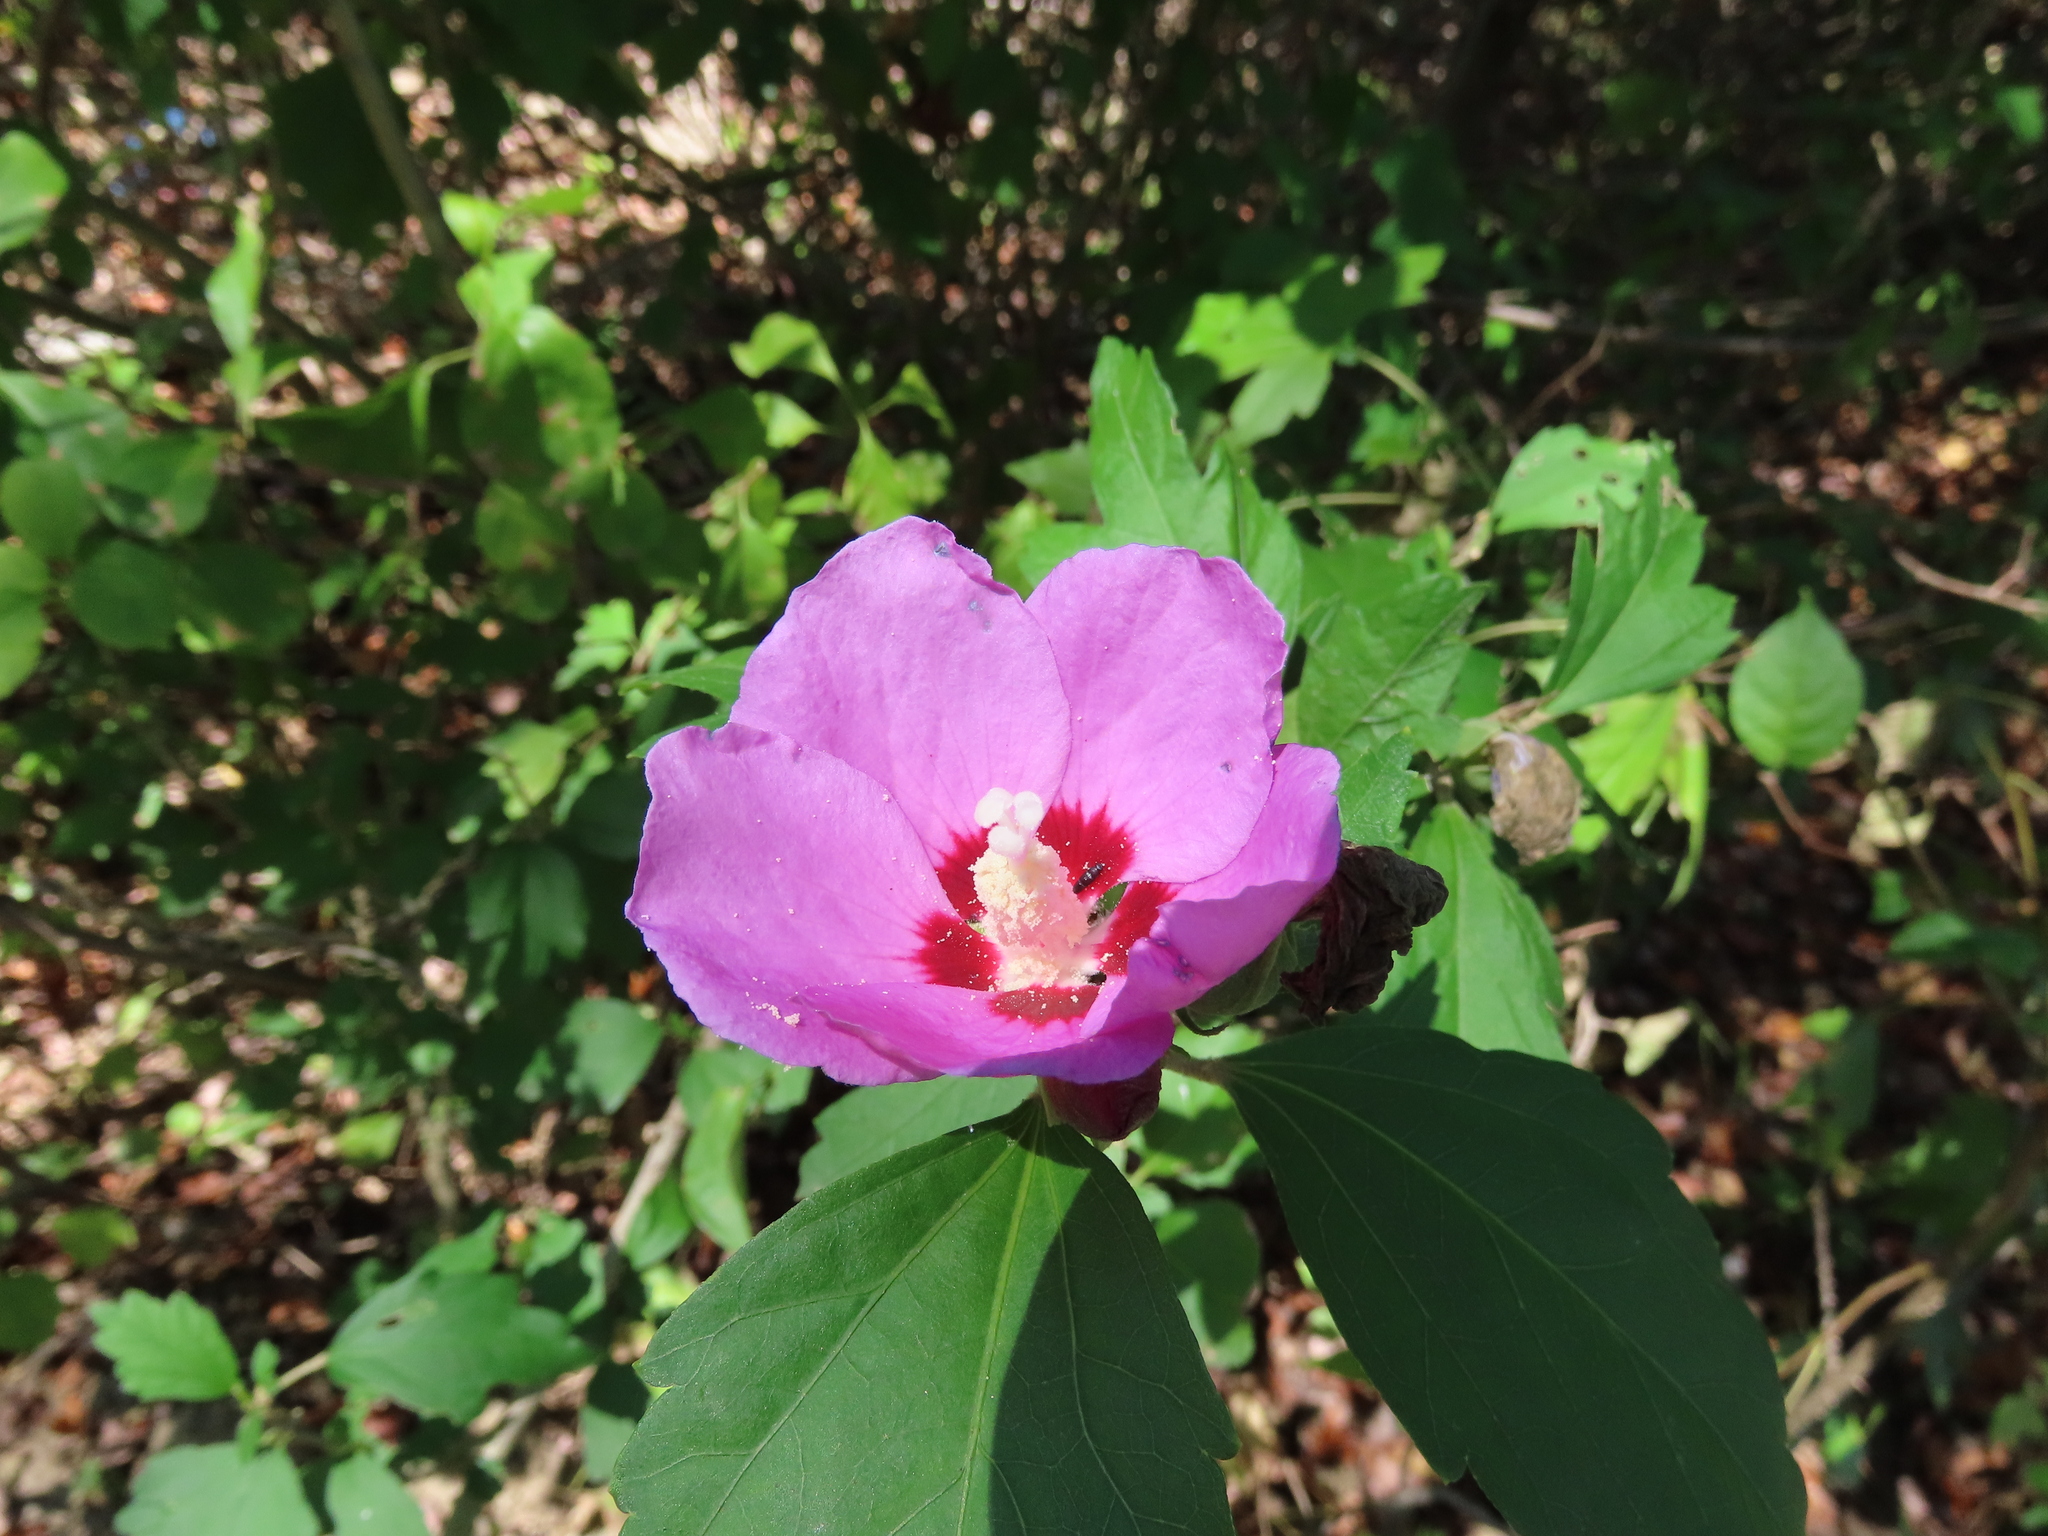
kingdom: Plantae
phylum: Tracheophyta
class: Magnoliopsida
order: Malvales
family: Malvaceae
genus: Hibiscus
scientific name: Hibiscus syriacus
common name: Syrian ketmia
